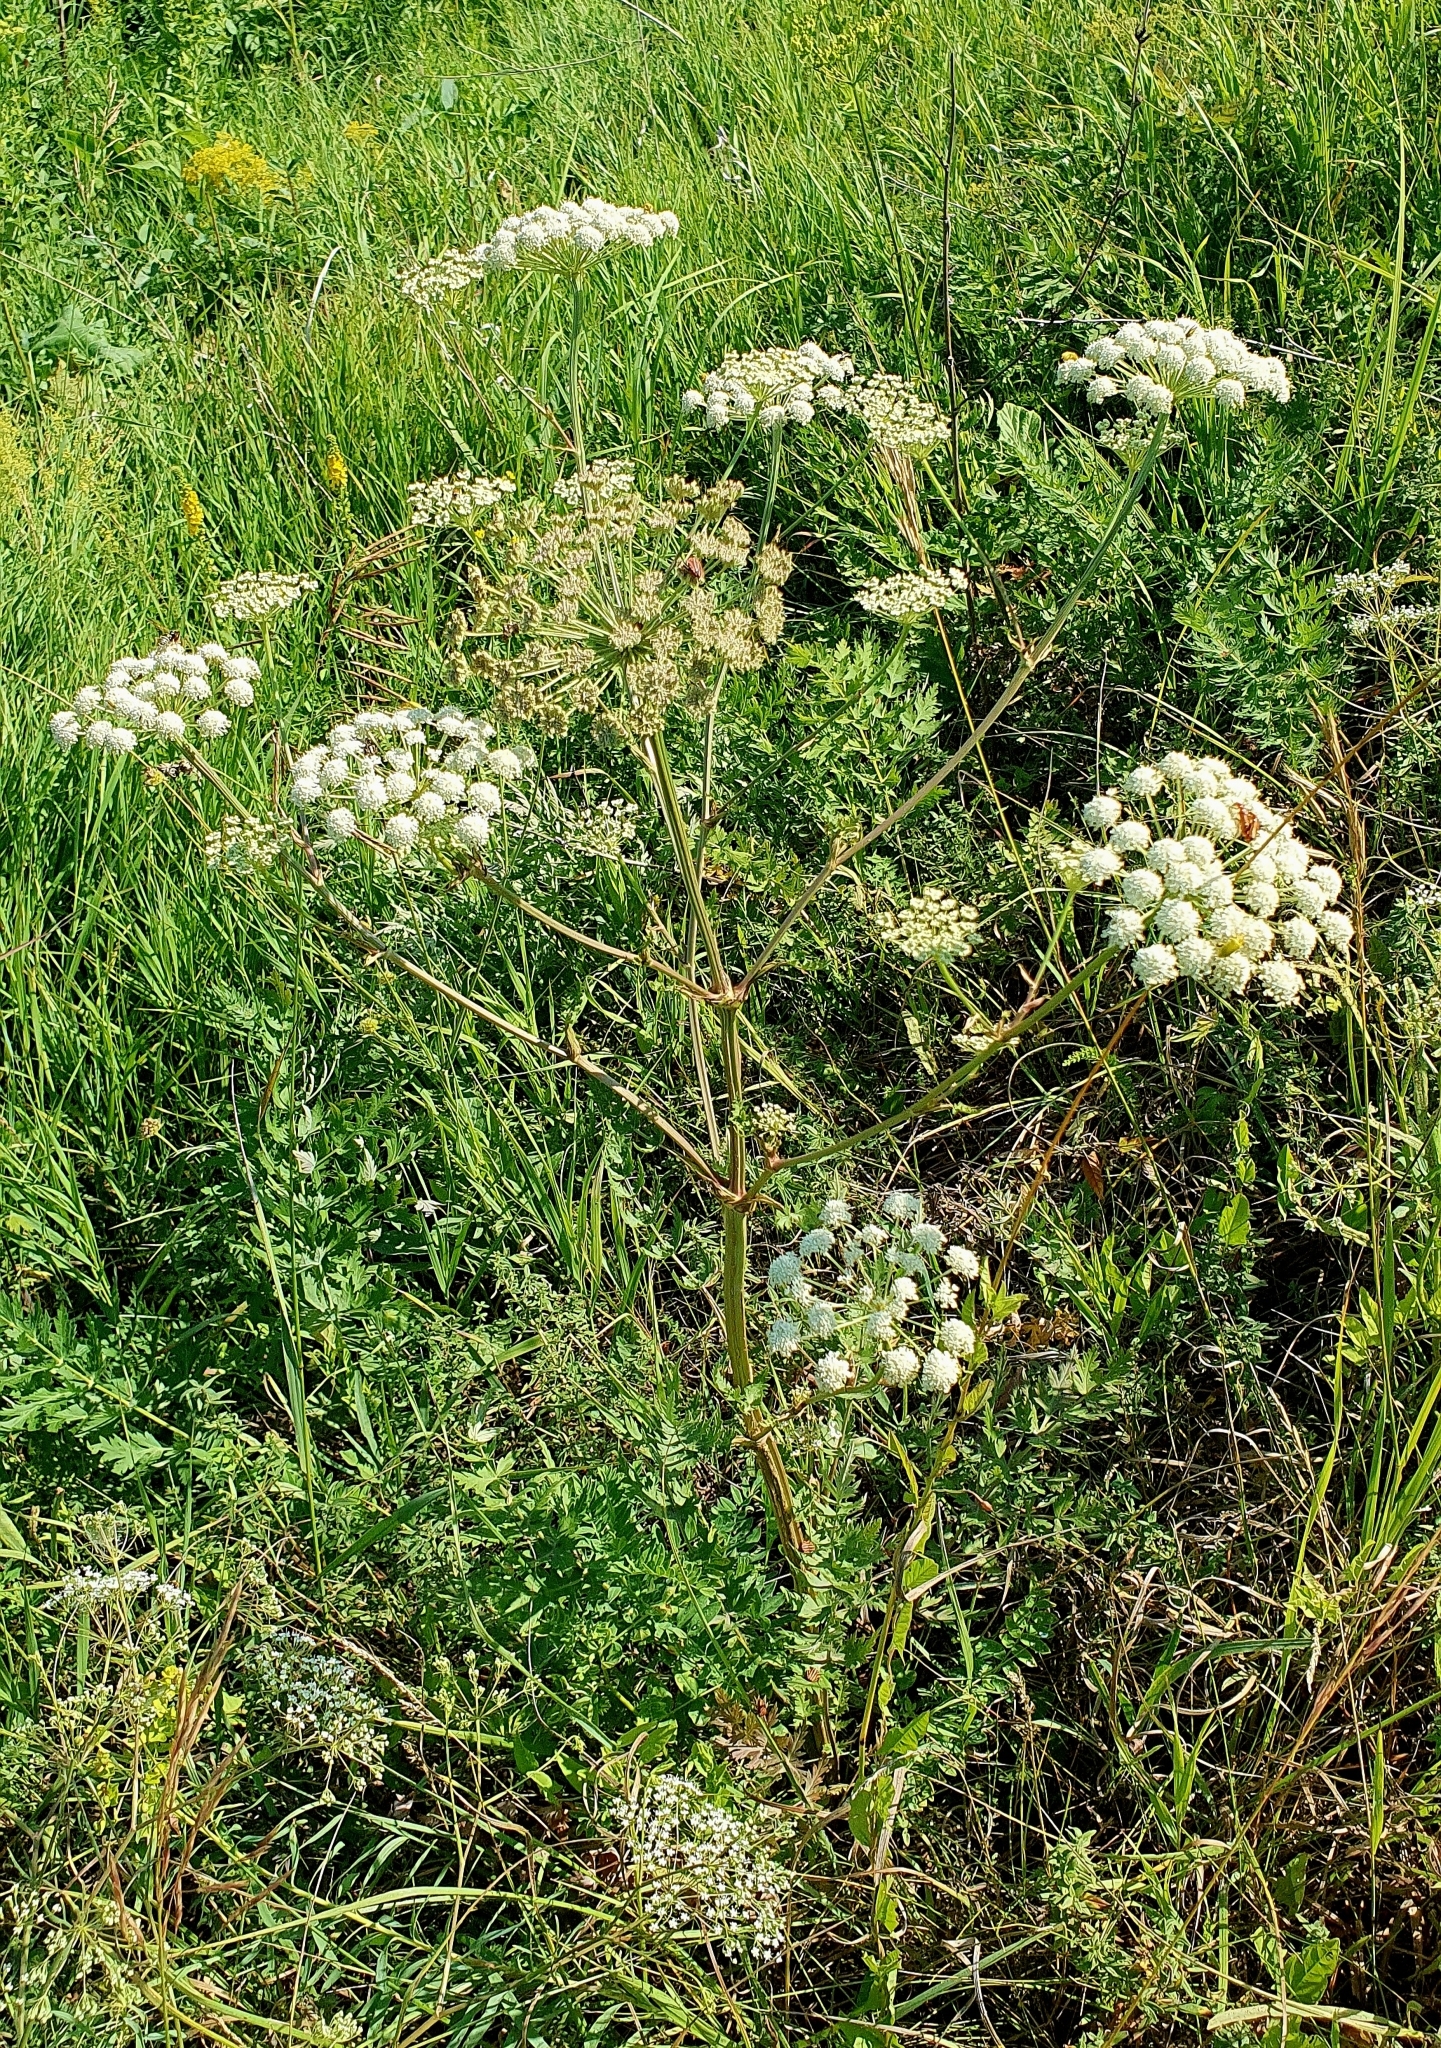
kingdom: Plantae
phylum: Tracheophyta
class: Magnoliopsida
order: Apiales
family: Apiaceae
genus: Seseli
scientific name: Seseli libanotis
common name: Mooncarrot
